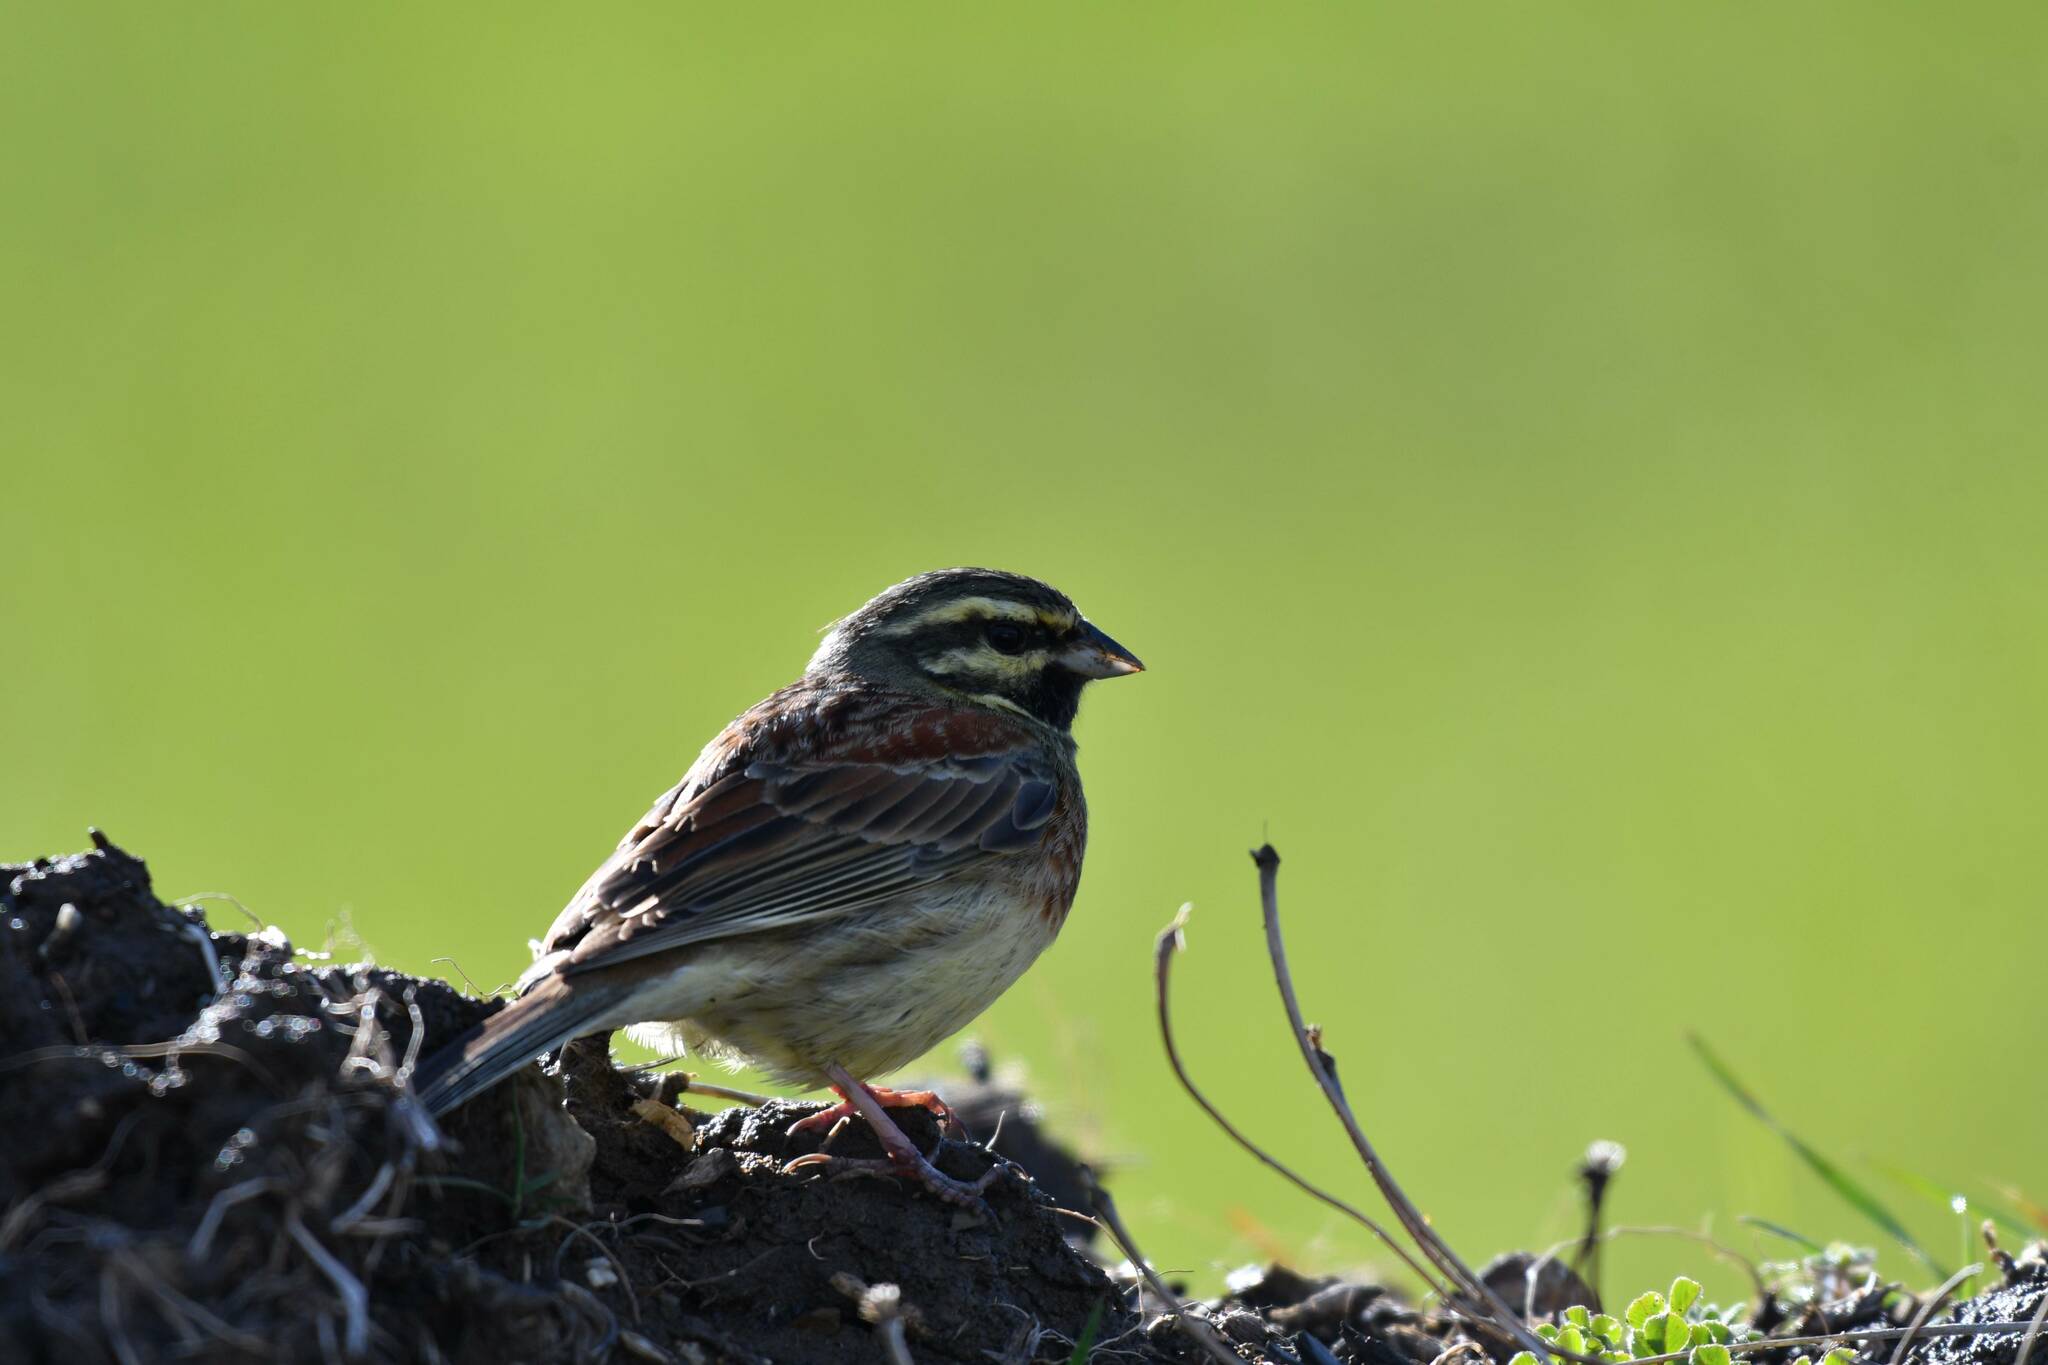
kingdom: Animalia
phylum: Chordata
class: Aves
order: Passeriformes
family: Emberizidae
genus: Emberiza
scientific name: Emberiza cirlus
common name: Cirl bunting
